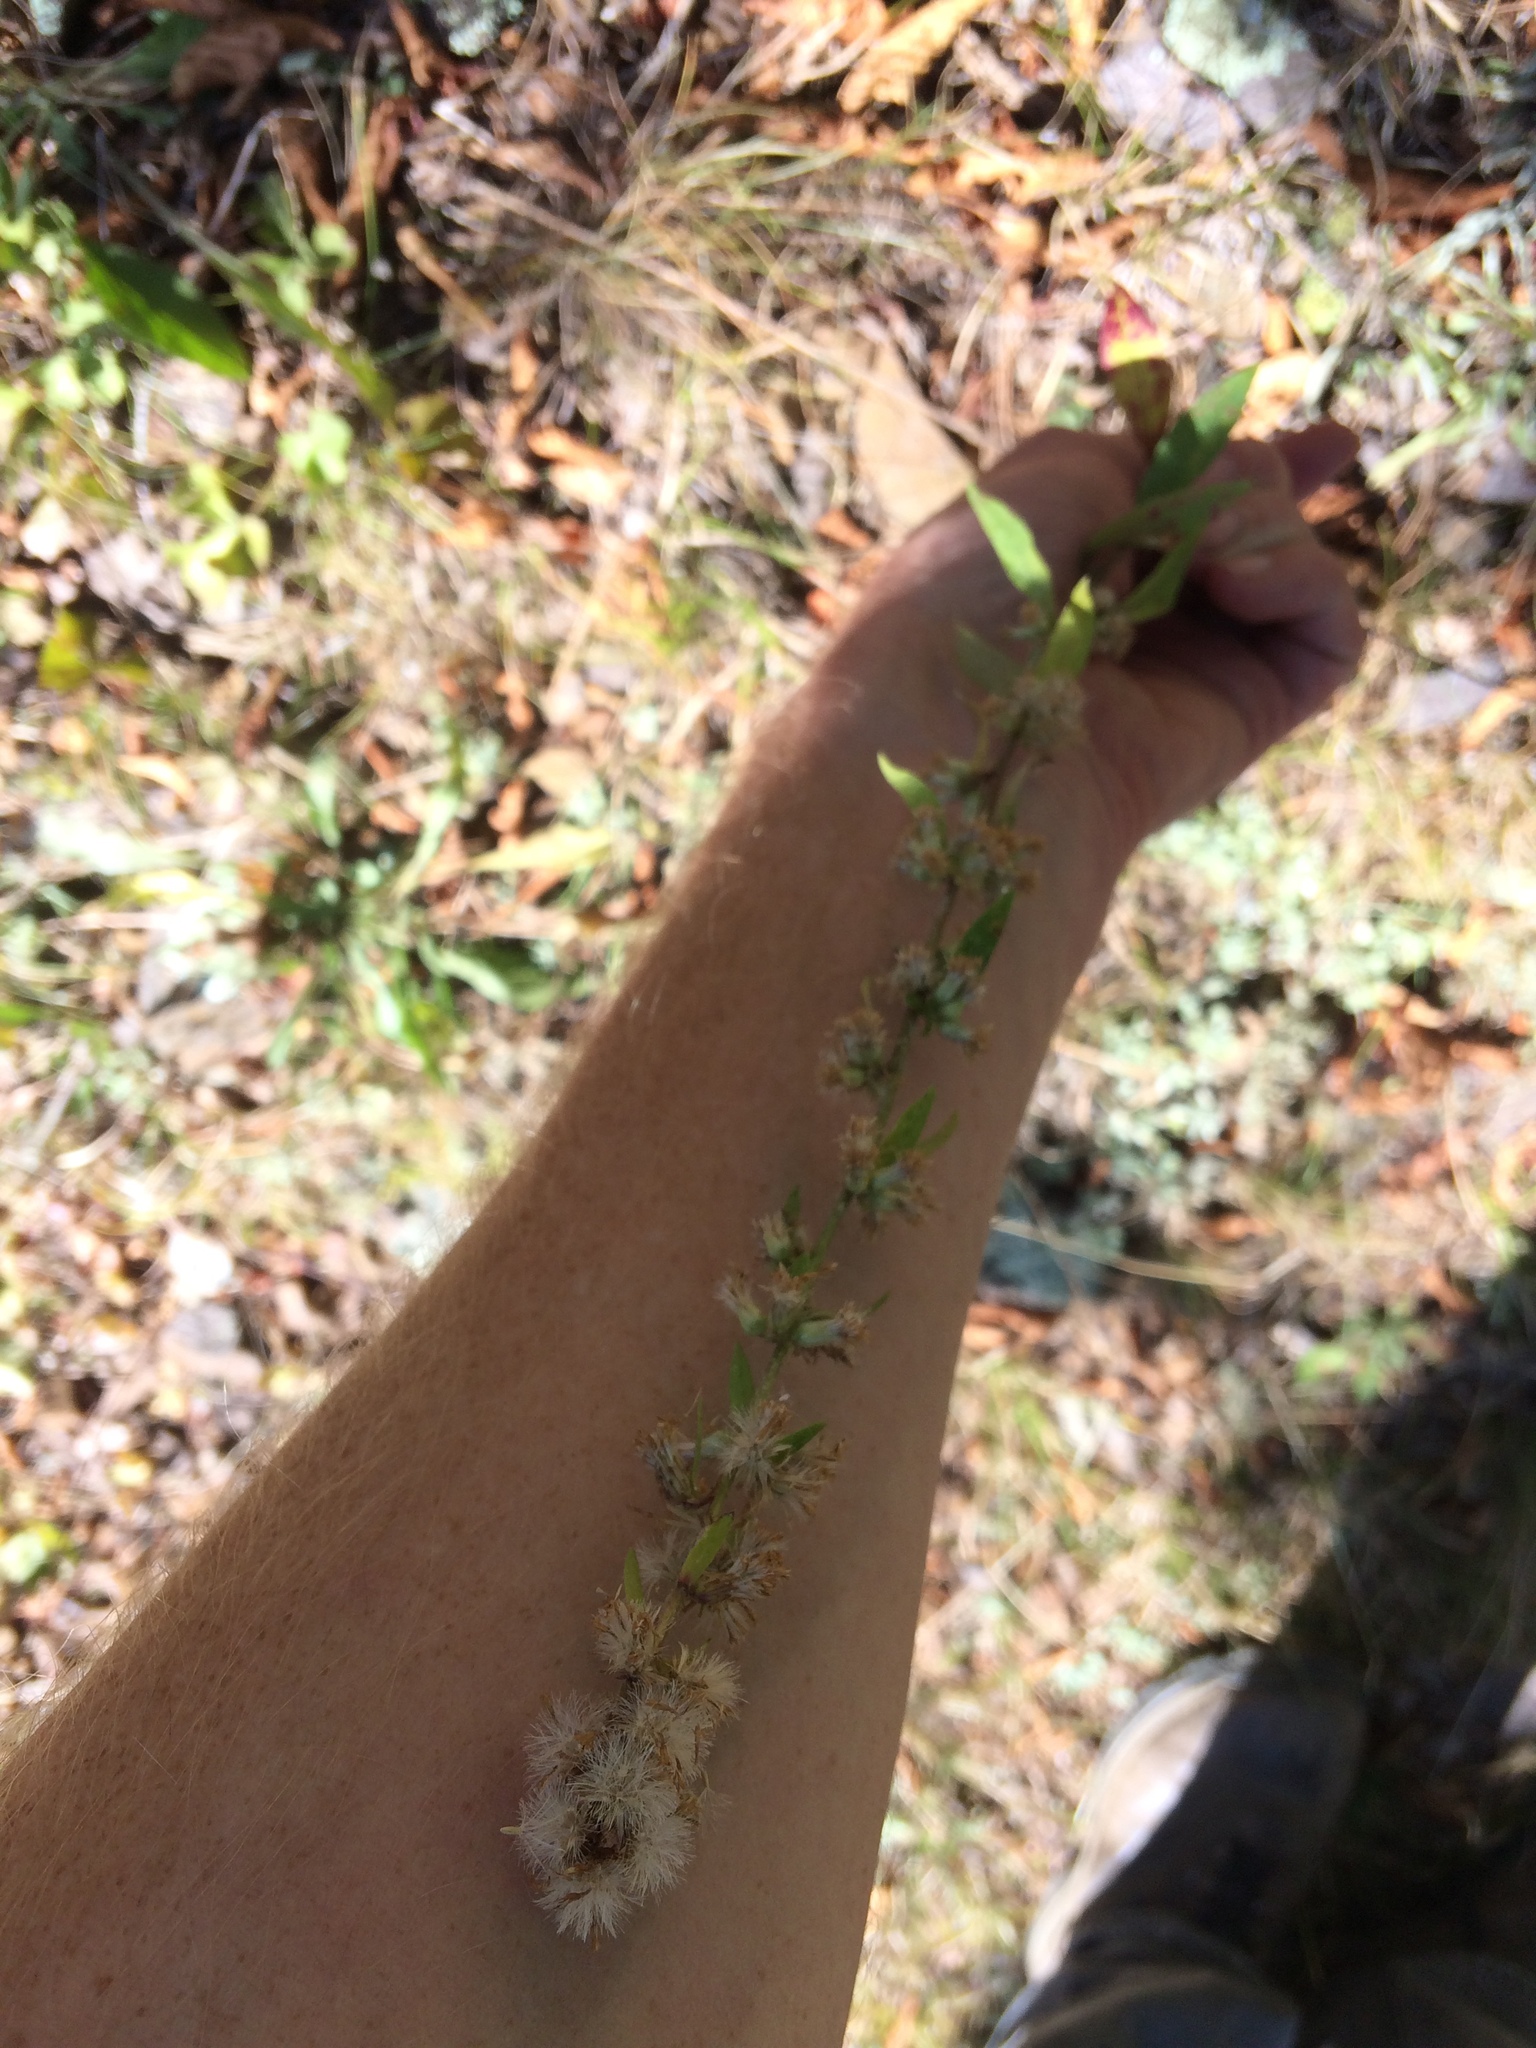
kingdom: Plantae
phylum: Tracheophyta
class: Magnoliopsida
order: Asterales
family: Asteraceae
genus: Solidago
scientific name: Solidago bicolor
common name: Silverrod
